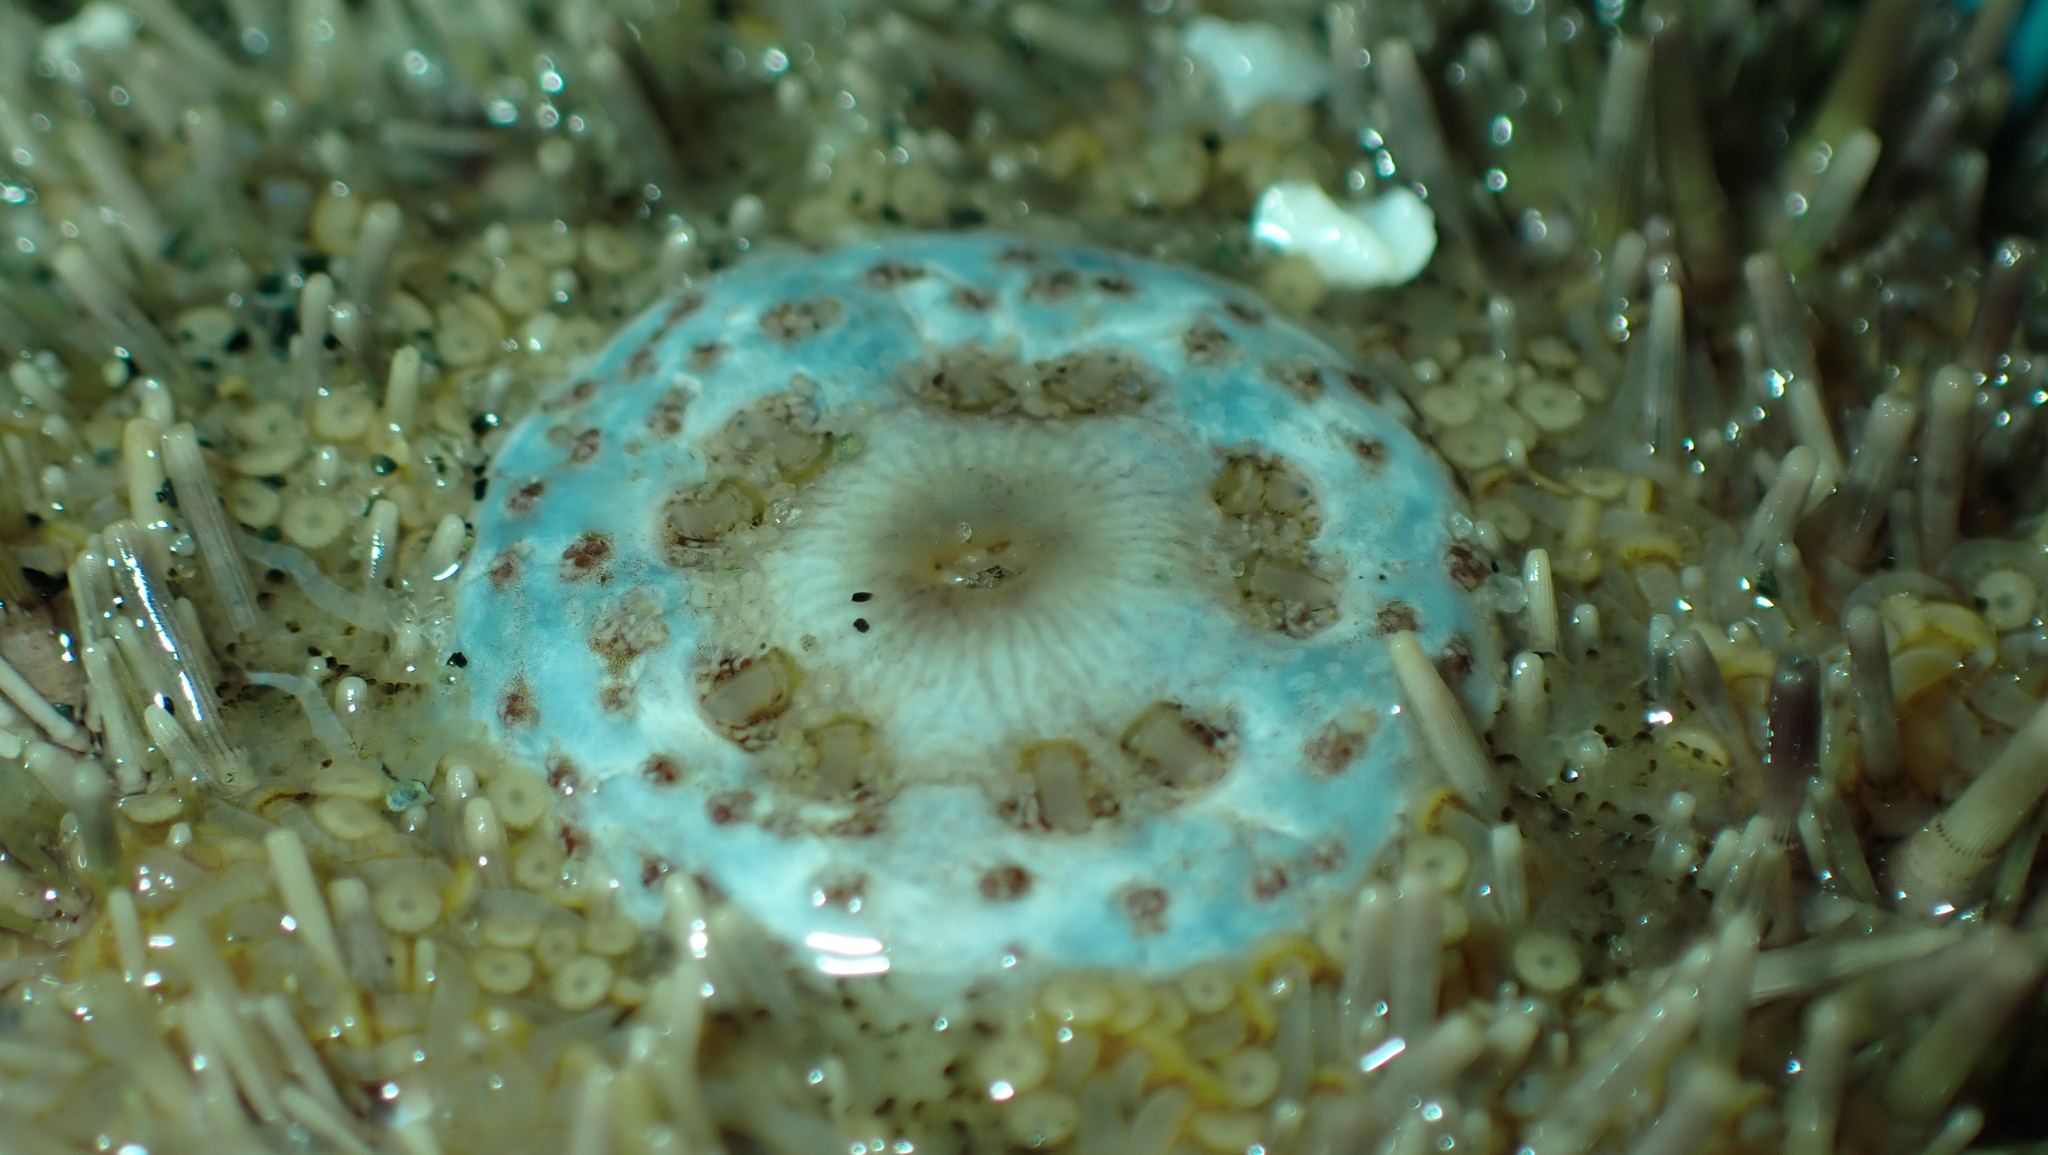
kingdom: Animalia
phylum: Echinodermata
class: Echinoidea
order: Camarodonta
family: Strongylocentrotidae
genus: Strongylocentrotus
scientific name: Strongylocentrotus droebachiensis
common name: Northern sea urchin
